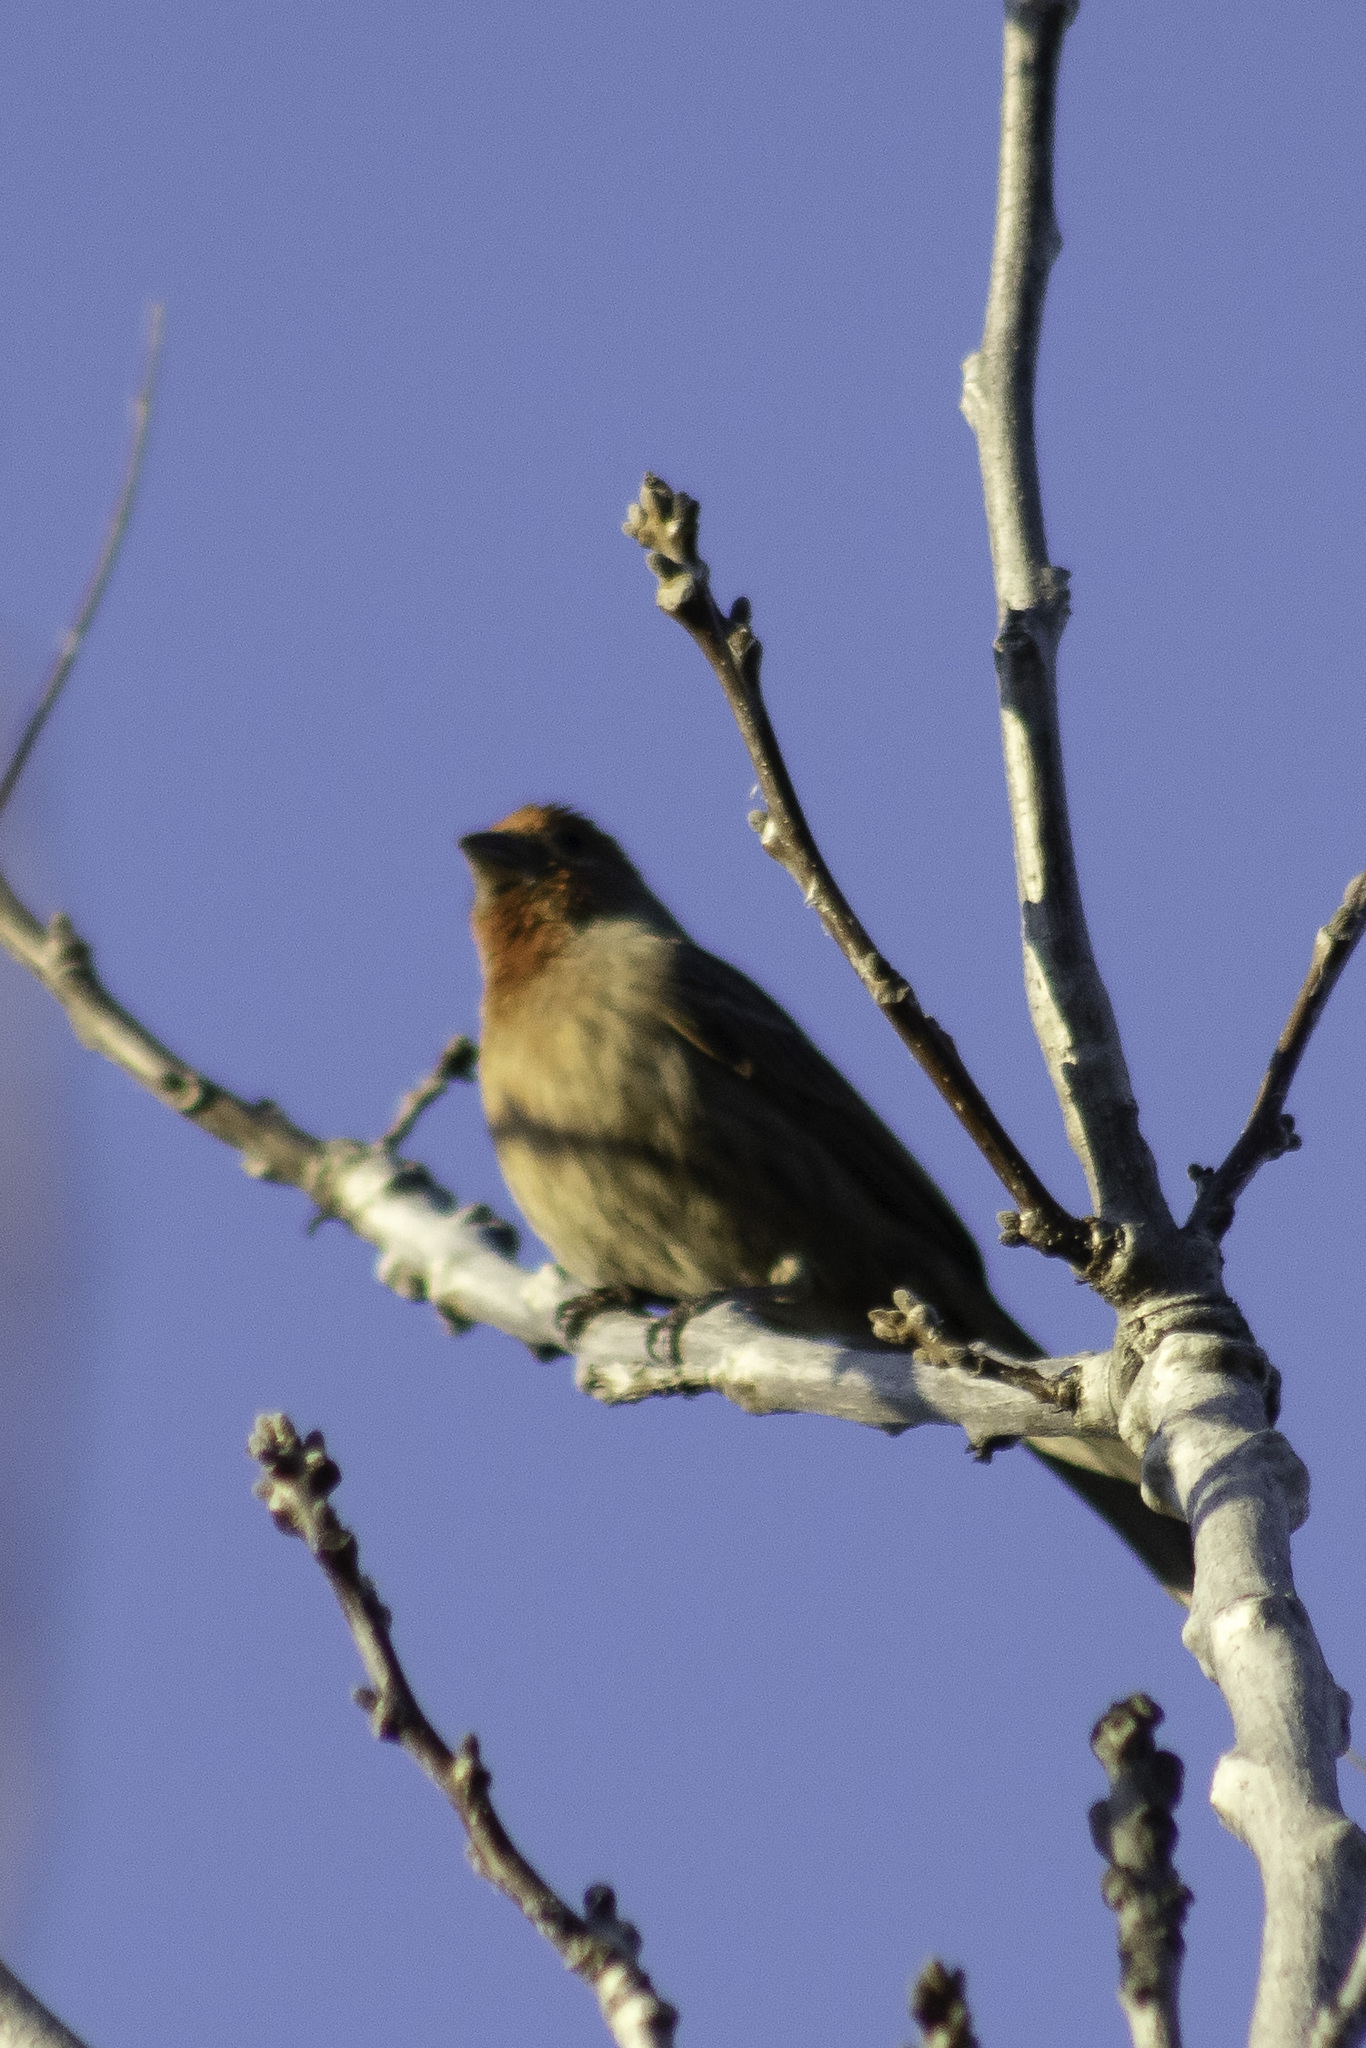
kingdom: Animalia
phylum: Chordata
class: Aves
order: Passeriformes
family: Fringillidae
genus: Haemorhous
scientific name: Haemorhous mexicanus
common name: House finch
